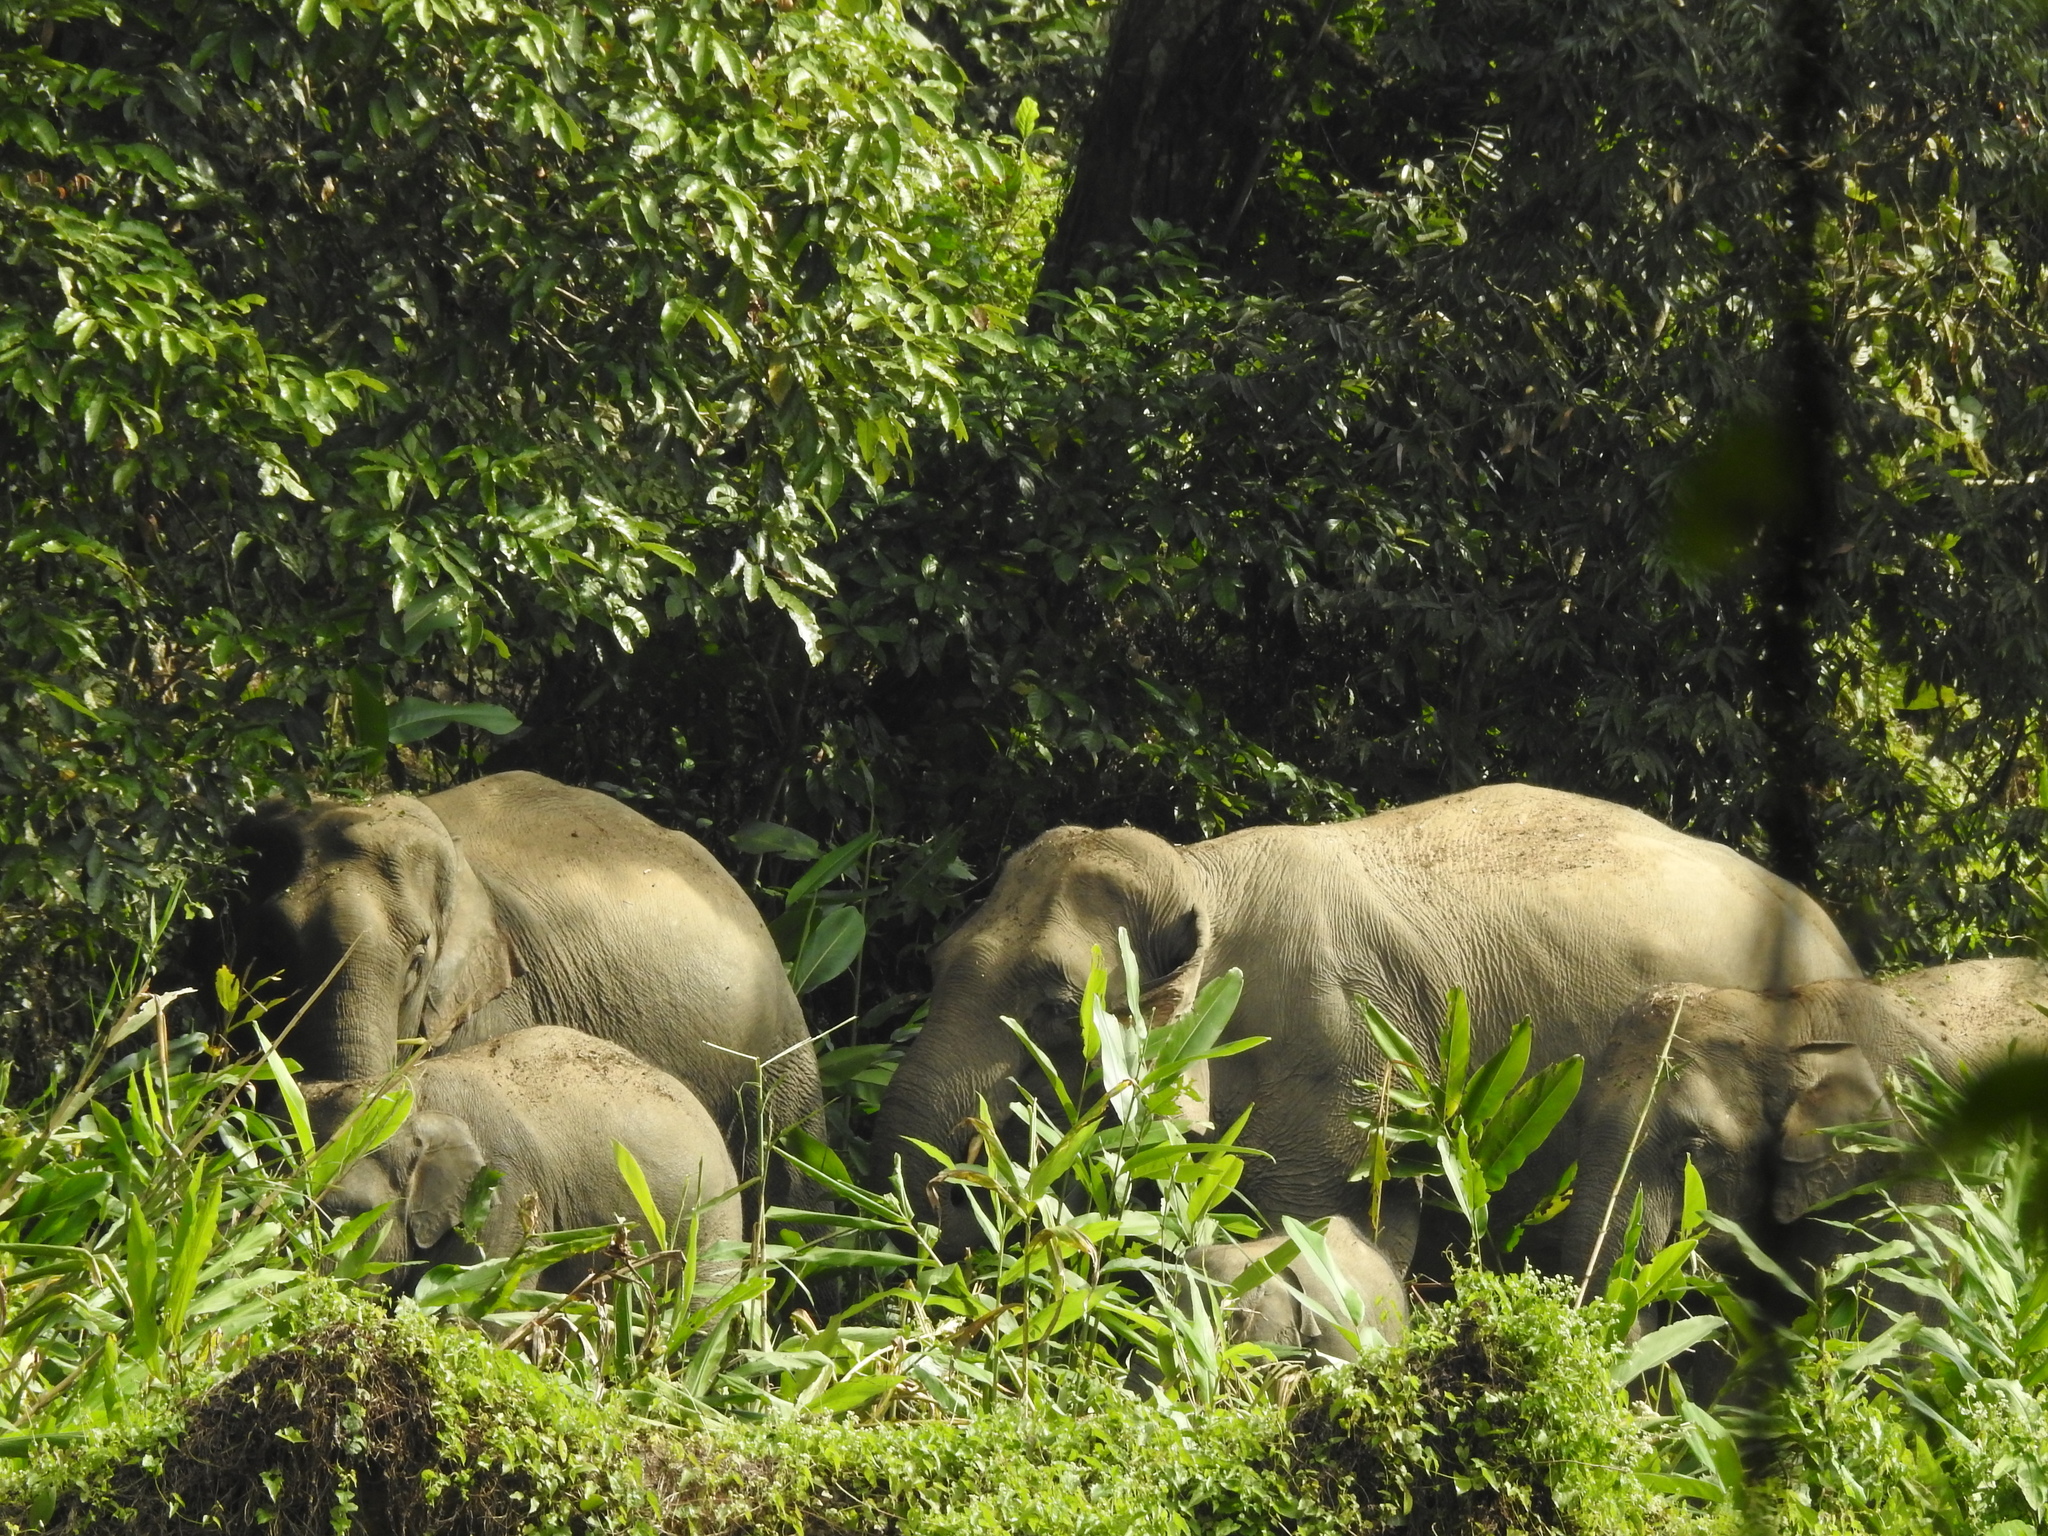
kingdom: Animalia
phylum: Chordata
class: Mammalia
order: Proboscidea
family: Elephantidae
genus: Elephas
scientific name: Elephas maximus
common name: Asian elephant
